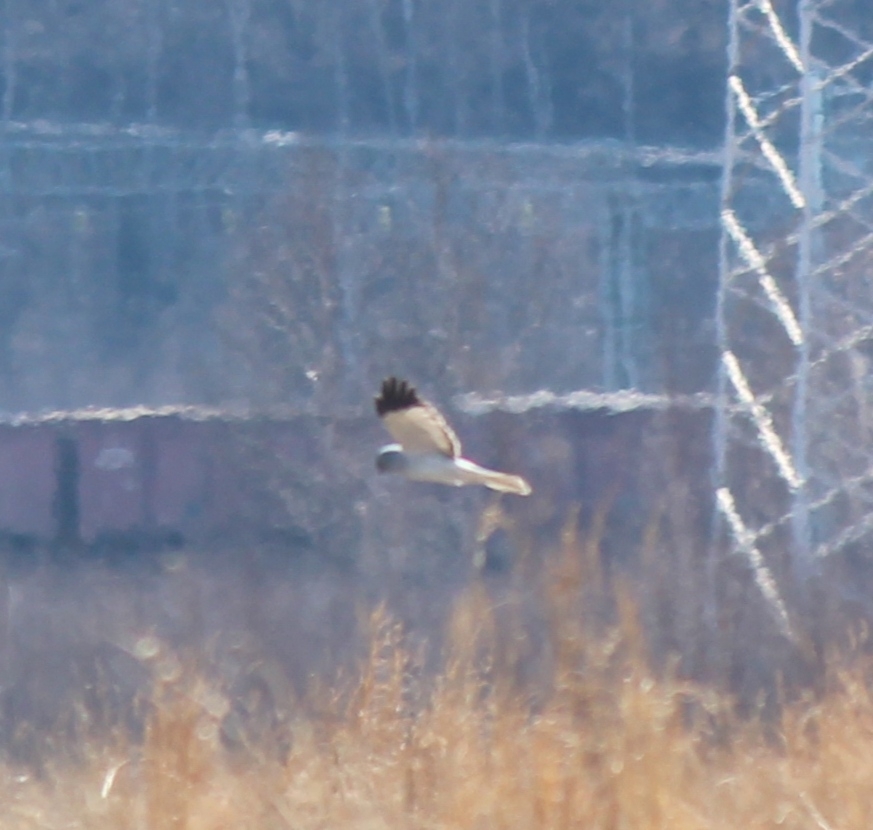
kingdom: Animalia
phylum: Chordata
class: Aves
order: Accipitriformes
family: Accipitridae
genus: Circus
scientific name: Circus cyaneus
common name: Hen harrier
